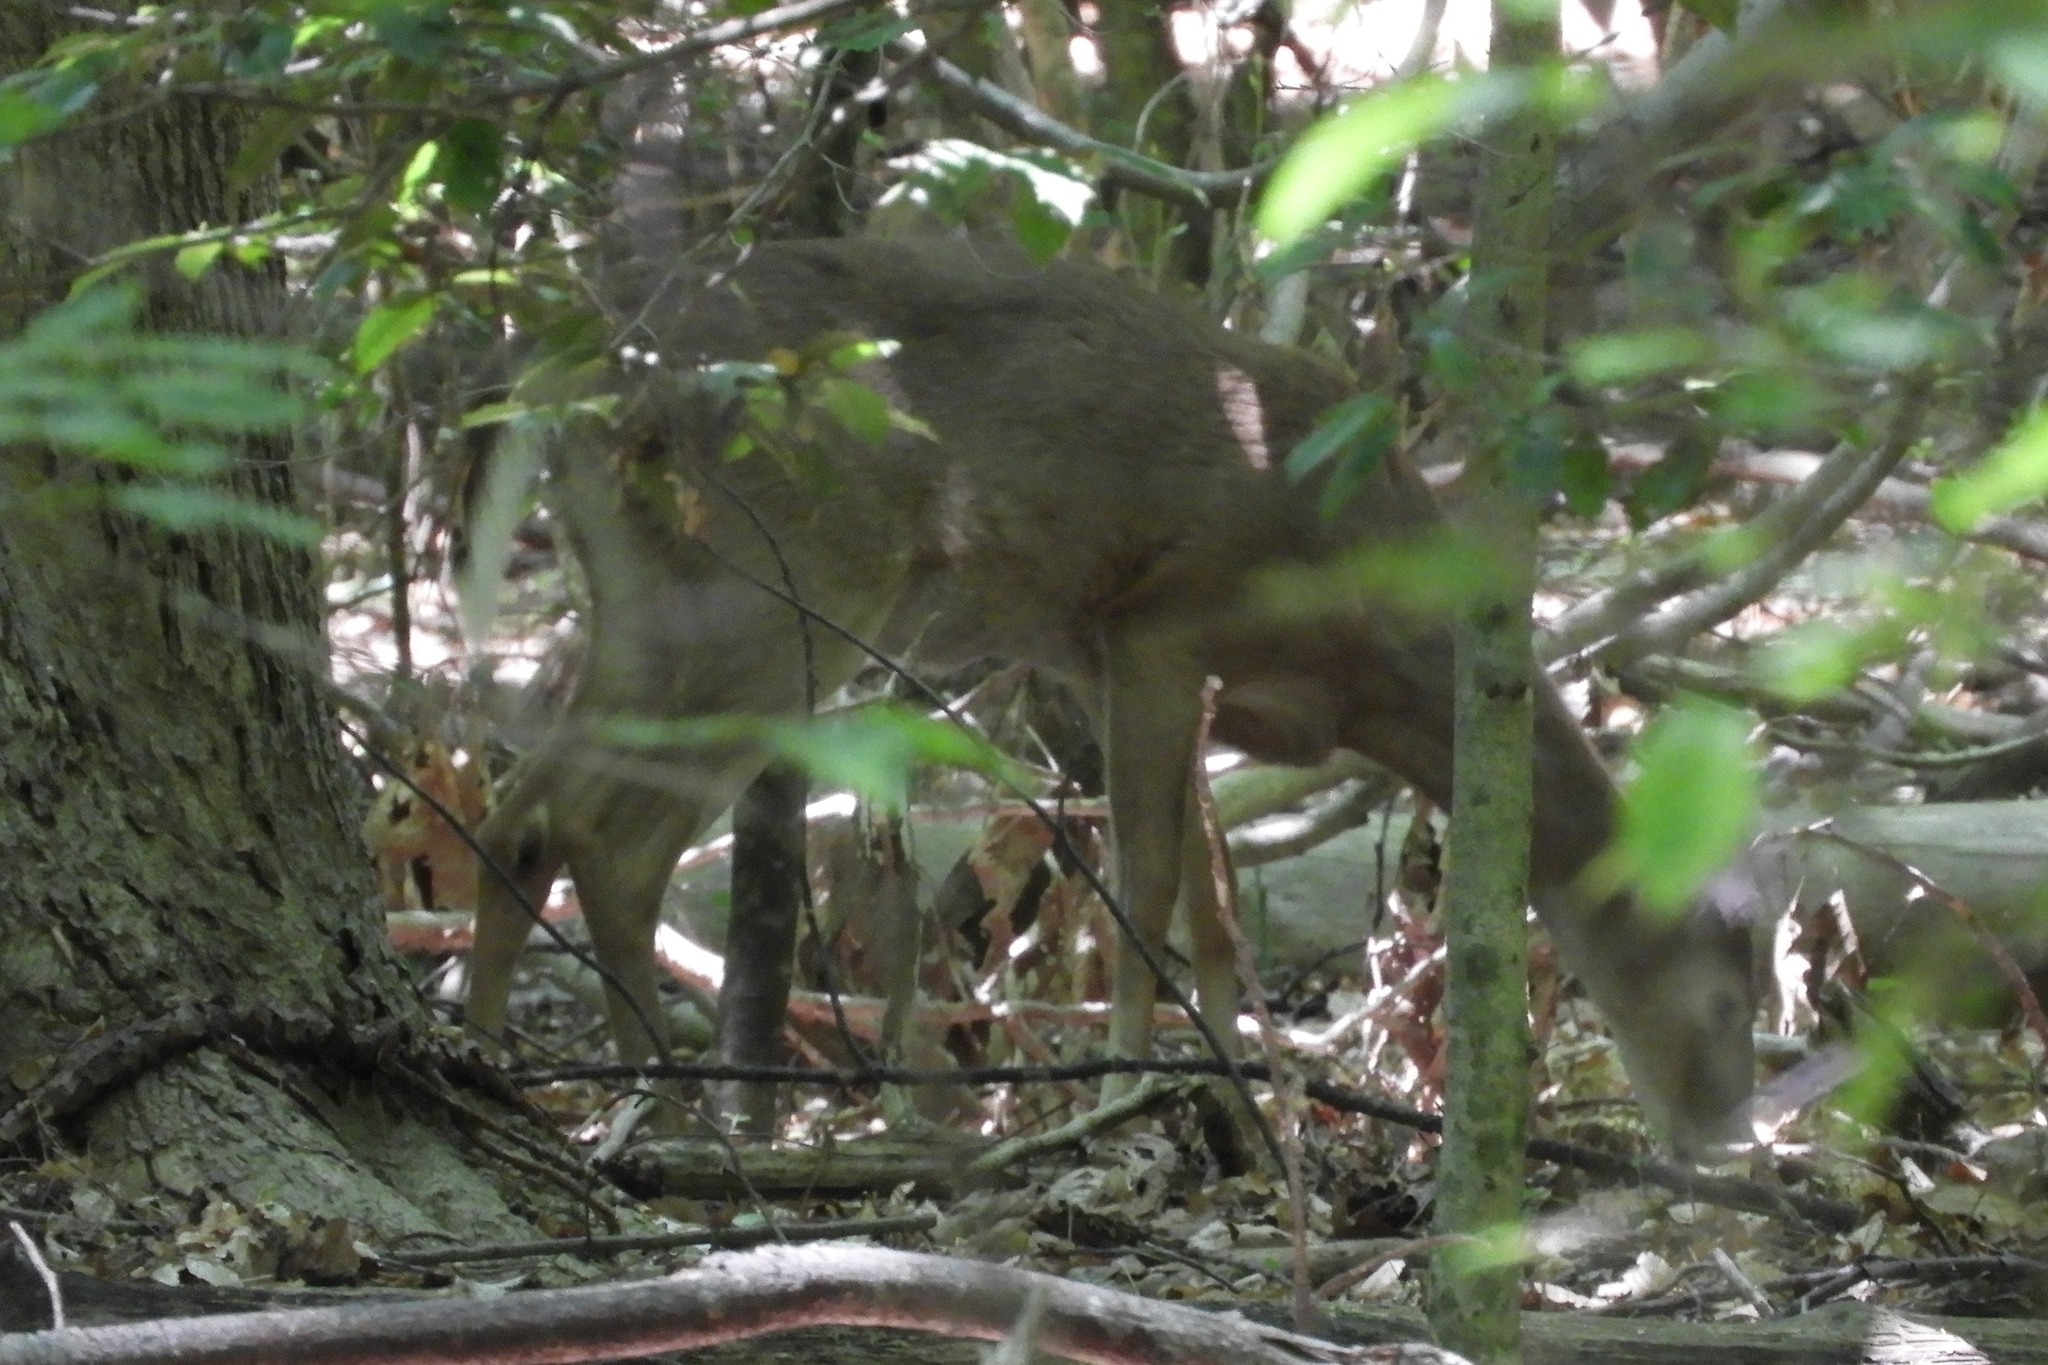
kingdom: Animalia
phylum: Chordata
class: Mammalia
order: Artiodactyla
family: Cervidae
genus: Odocoileus
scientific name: Odocoileus virginianus
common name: White-tailed deer
